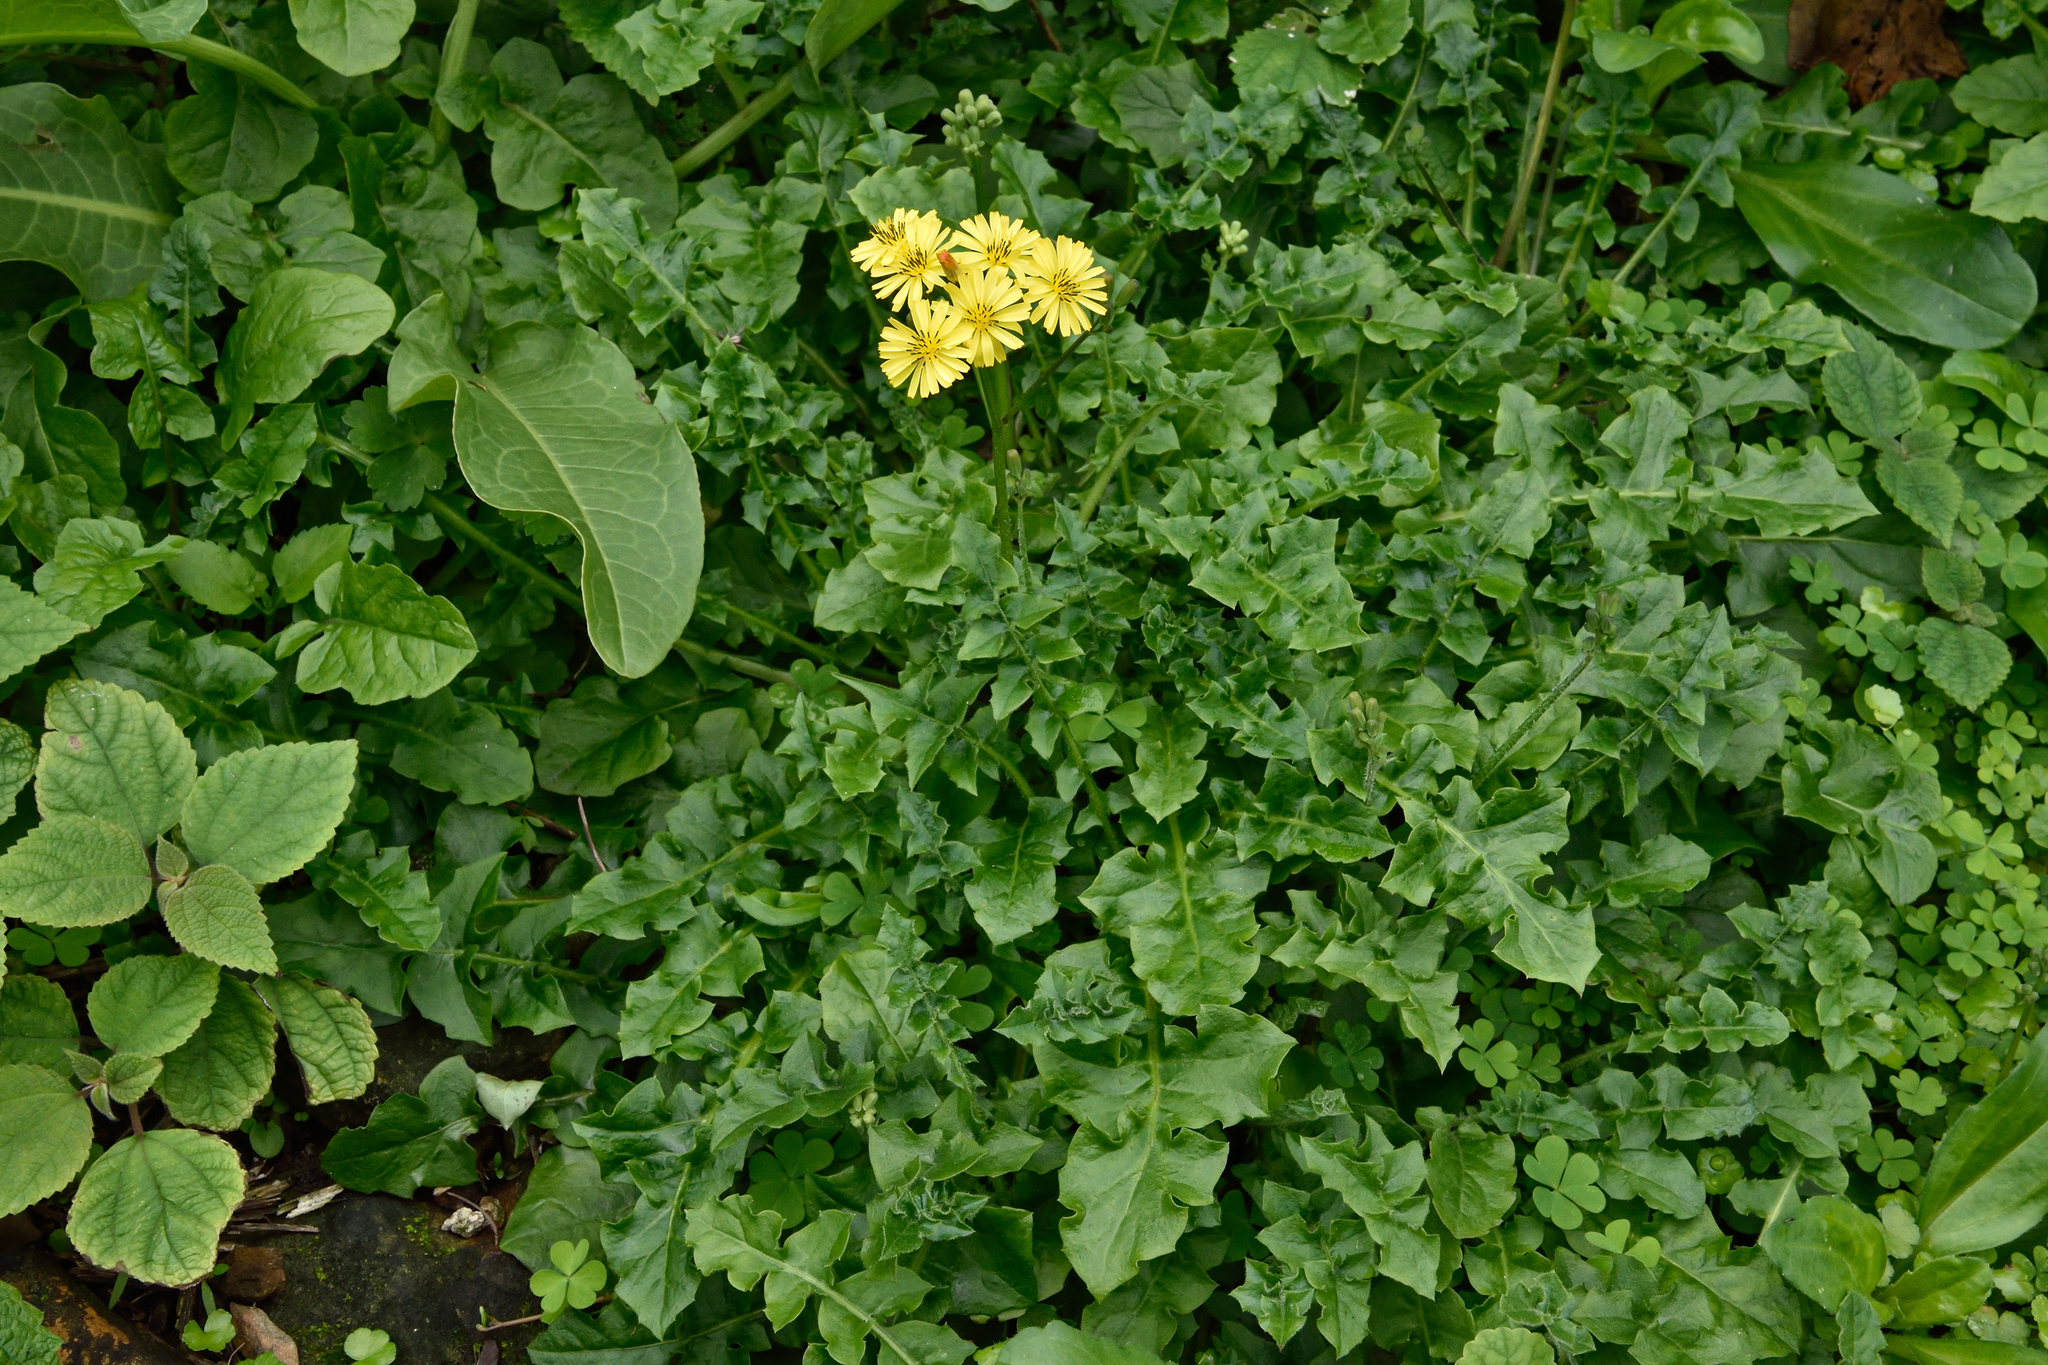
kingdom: Plantae
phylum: Tracheophyta
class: Magnoliopsida
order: Asterales
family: Asteraceae
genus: Youngia
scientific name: Youngia japonica
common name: Oriental false hawksbeard
